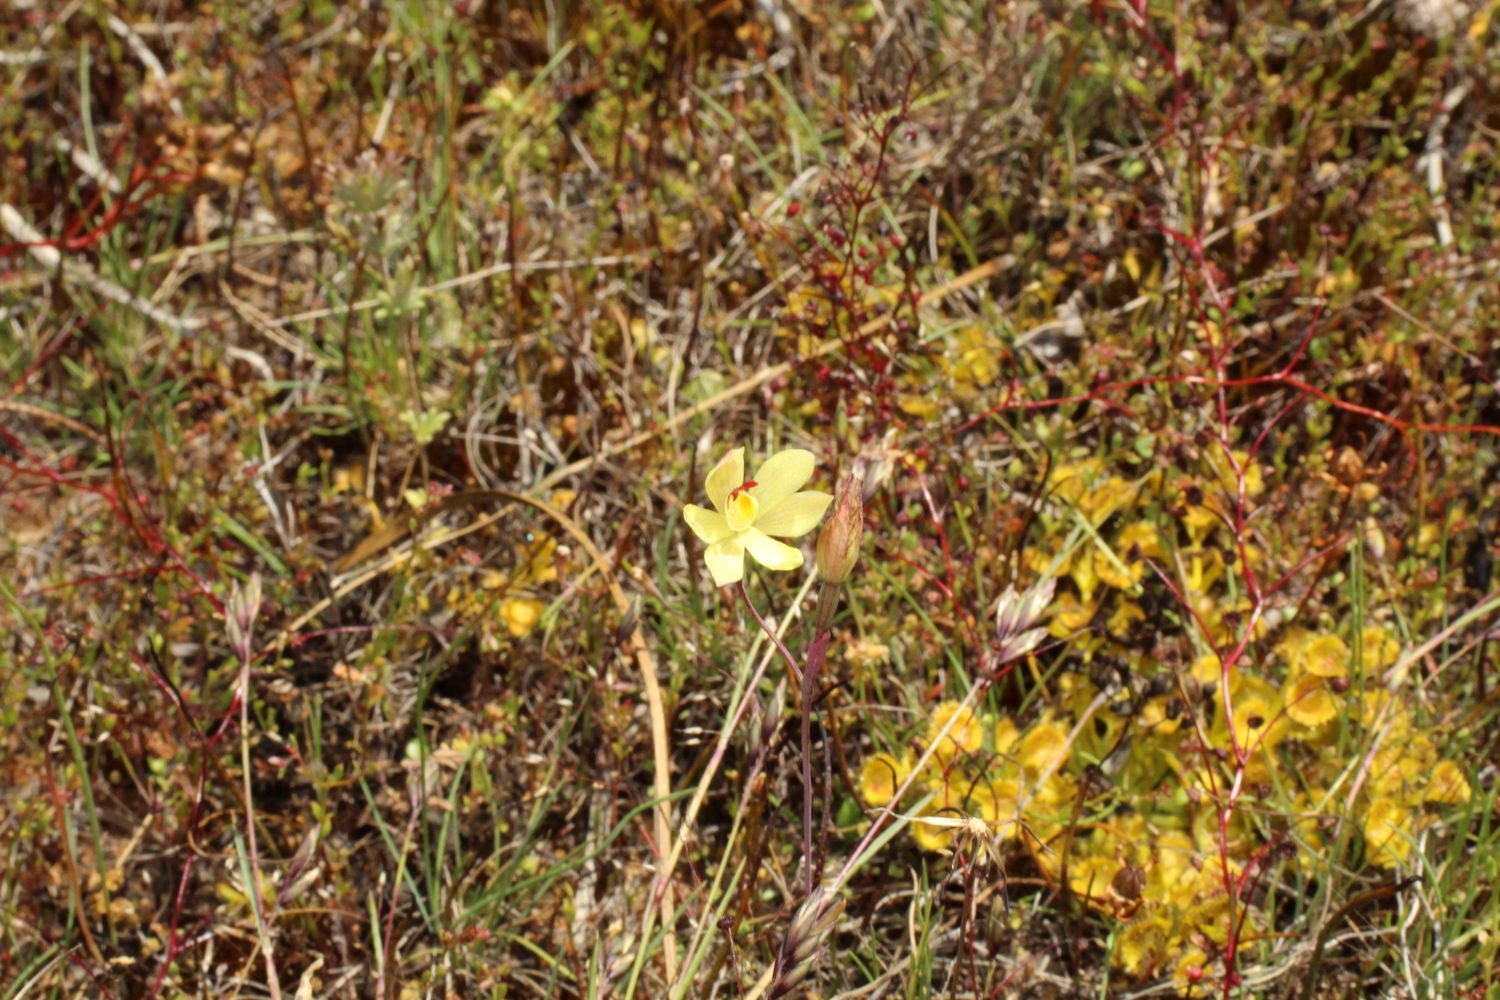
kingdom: Plantae
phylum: Tracheophyta
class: Liliopsida
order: Asparagales
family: Orchidaceae
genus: Thelymitra
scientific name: Thelymitra antennifera
